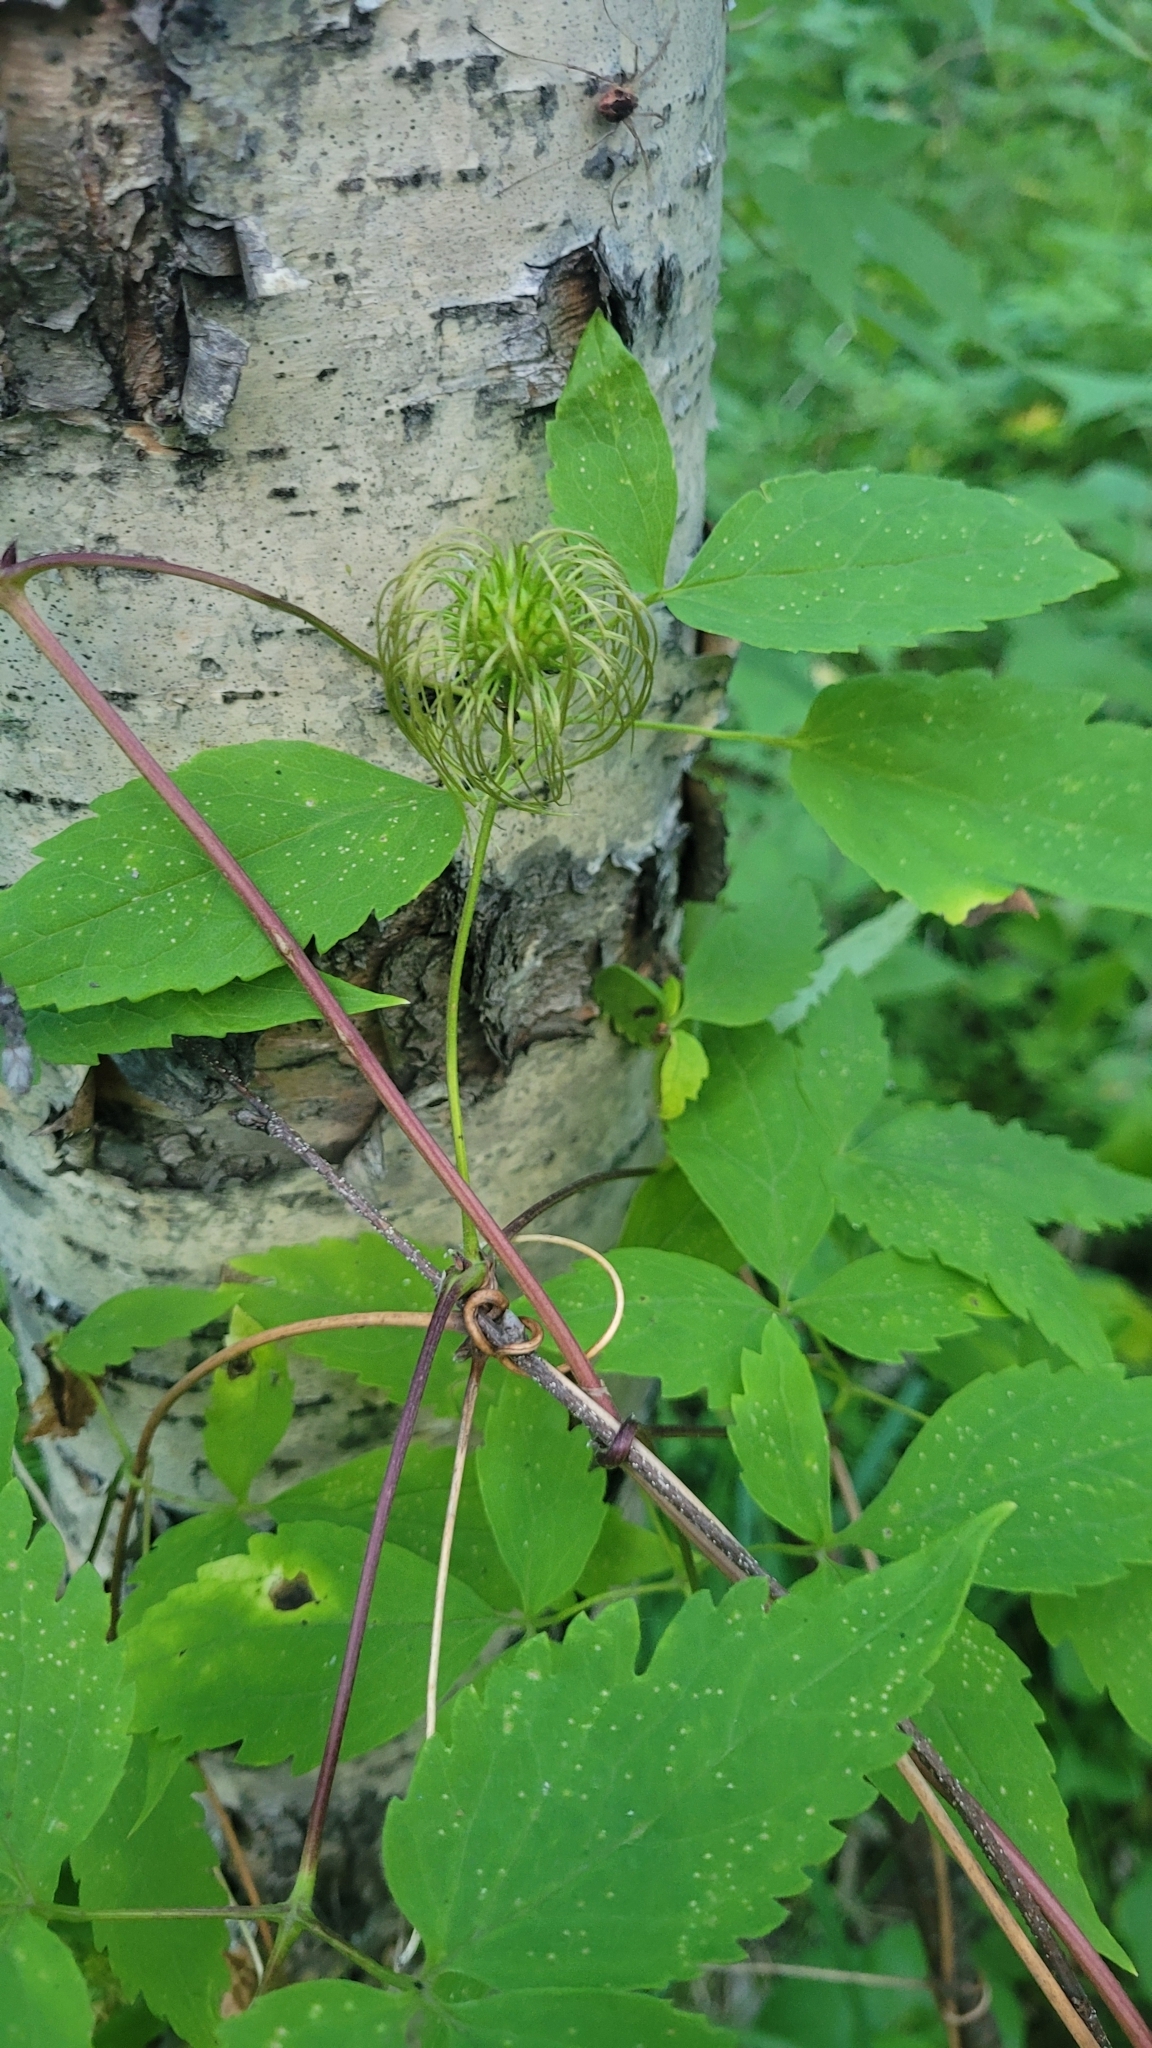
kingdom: Plantae
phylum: Tracheophyta
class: Magnoliopsida
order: Ranunculales
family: Ranunculaceae
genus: Clematis
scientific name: Clematis ochotensis
